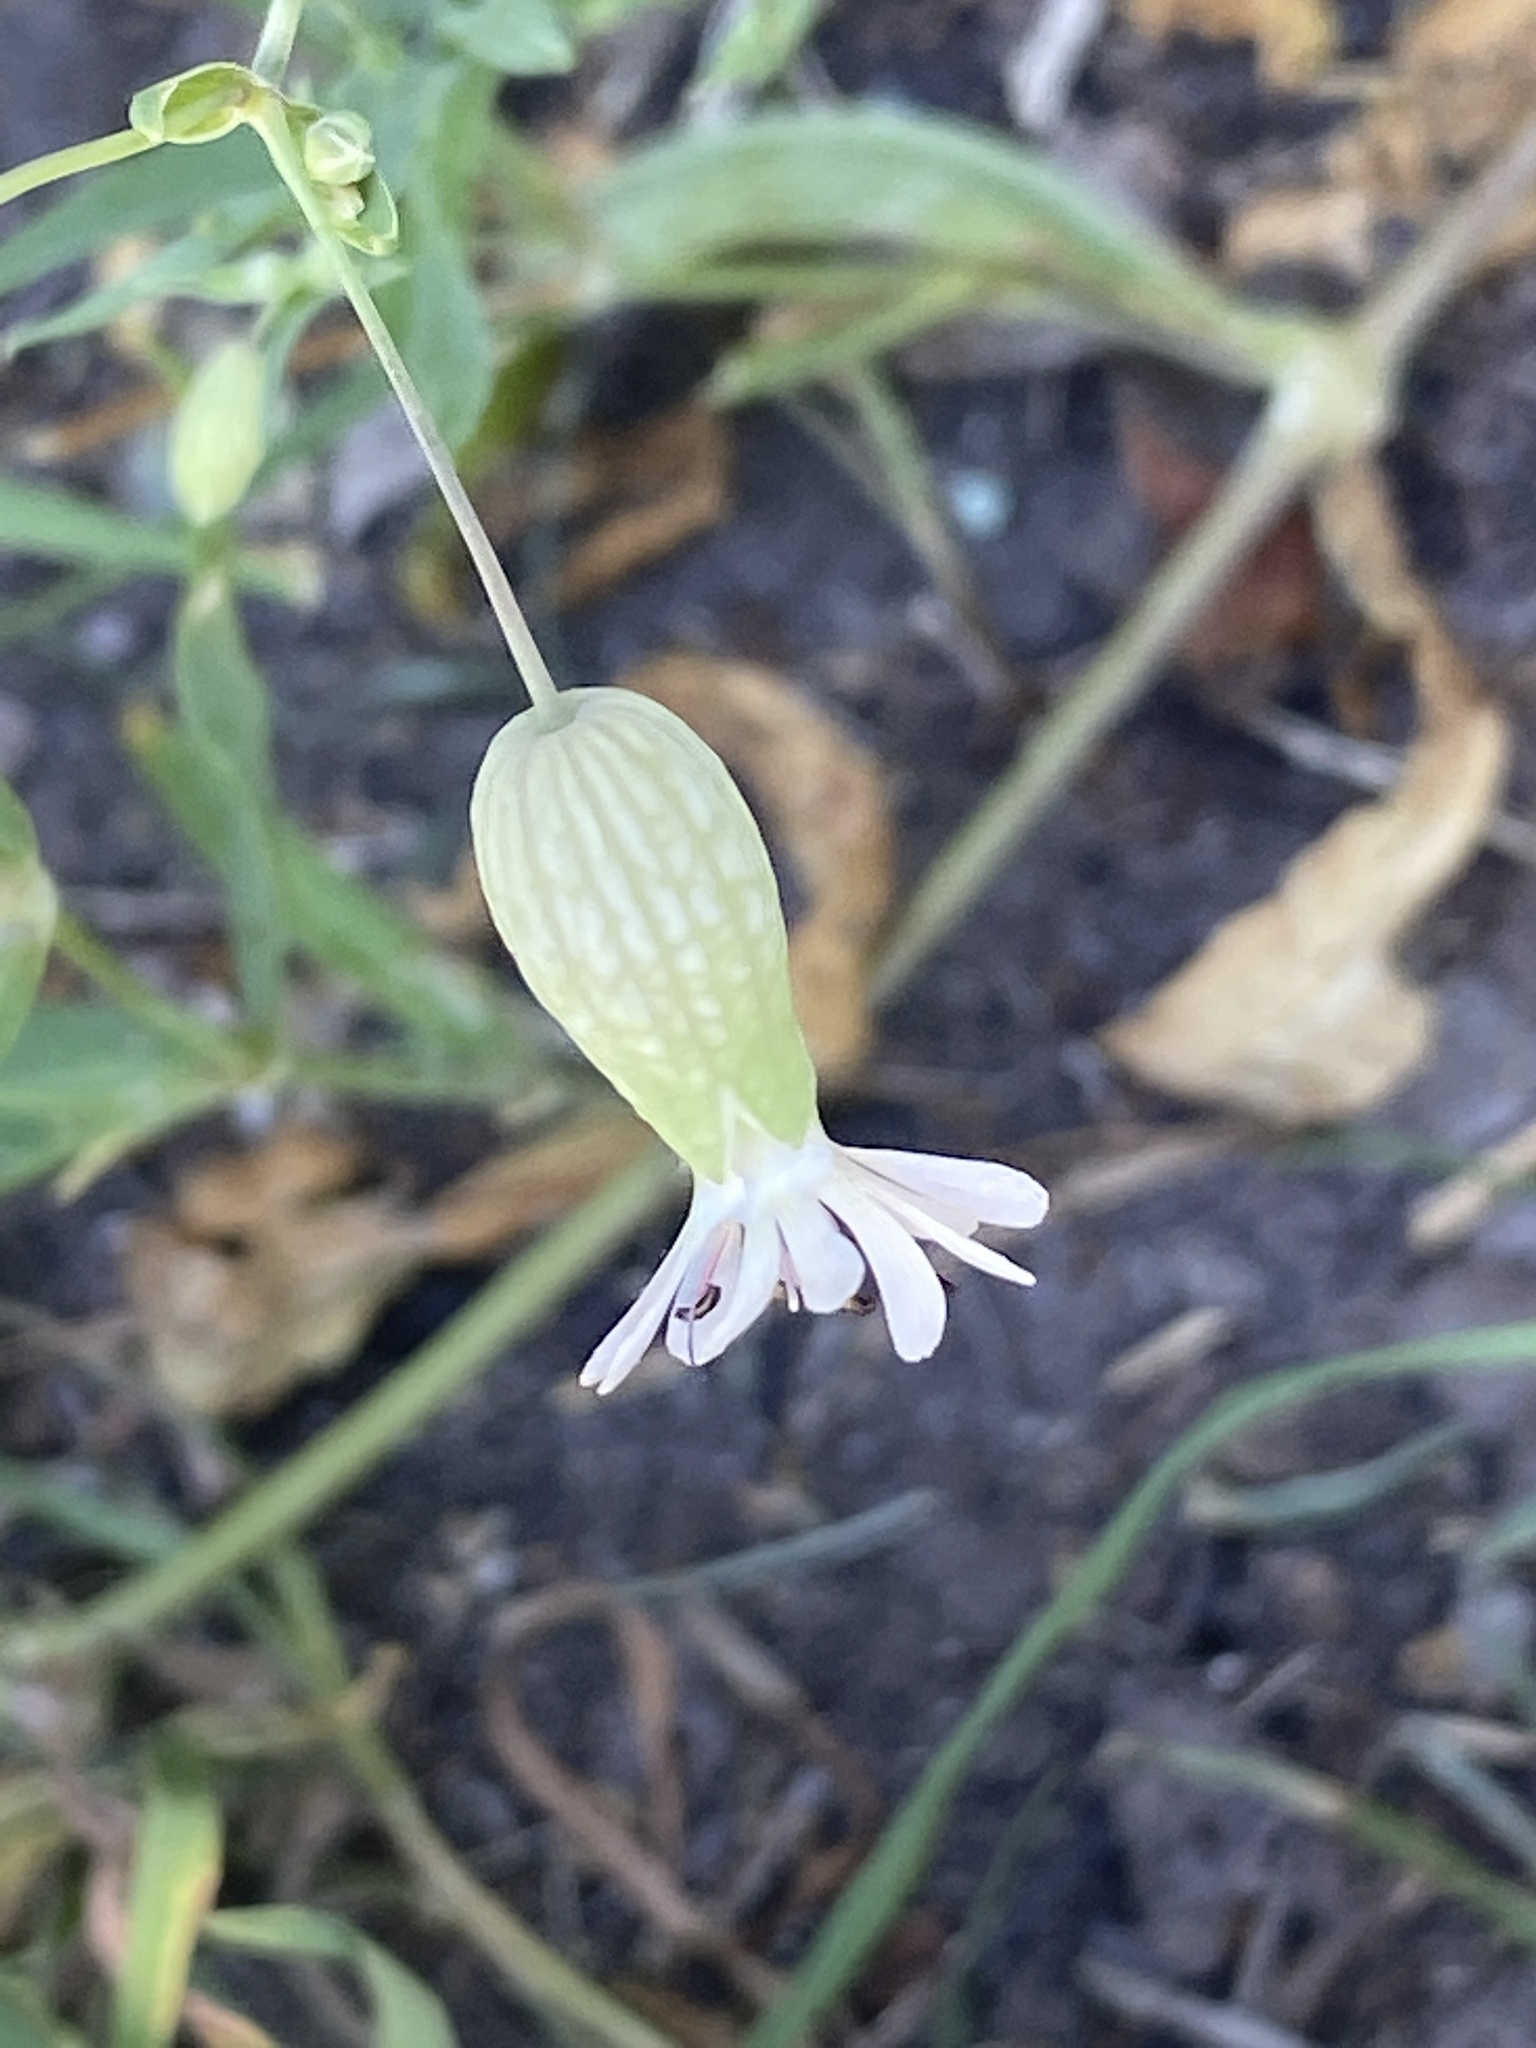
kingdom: Plantae
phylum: Tracheophyta
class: Magnoliopsida
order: Caryophyllales
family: Caryophyllaceae
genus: Silene
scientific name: Silene vulgaris
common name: Bladder campion
